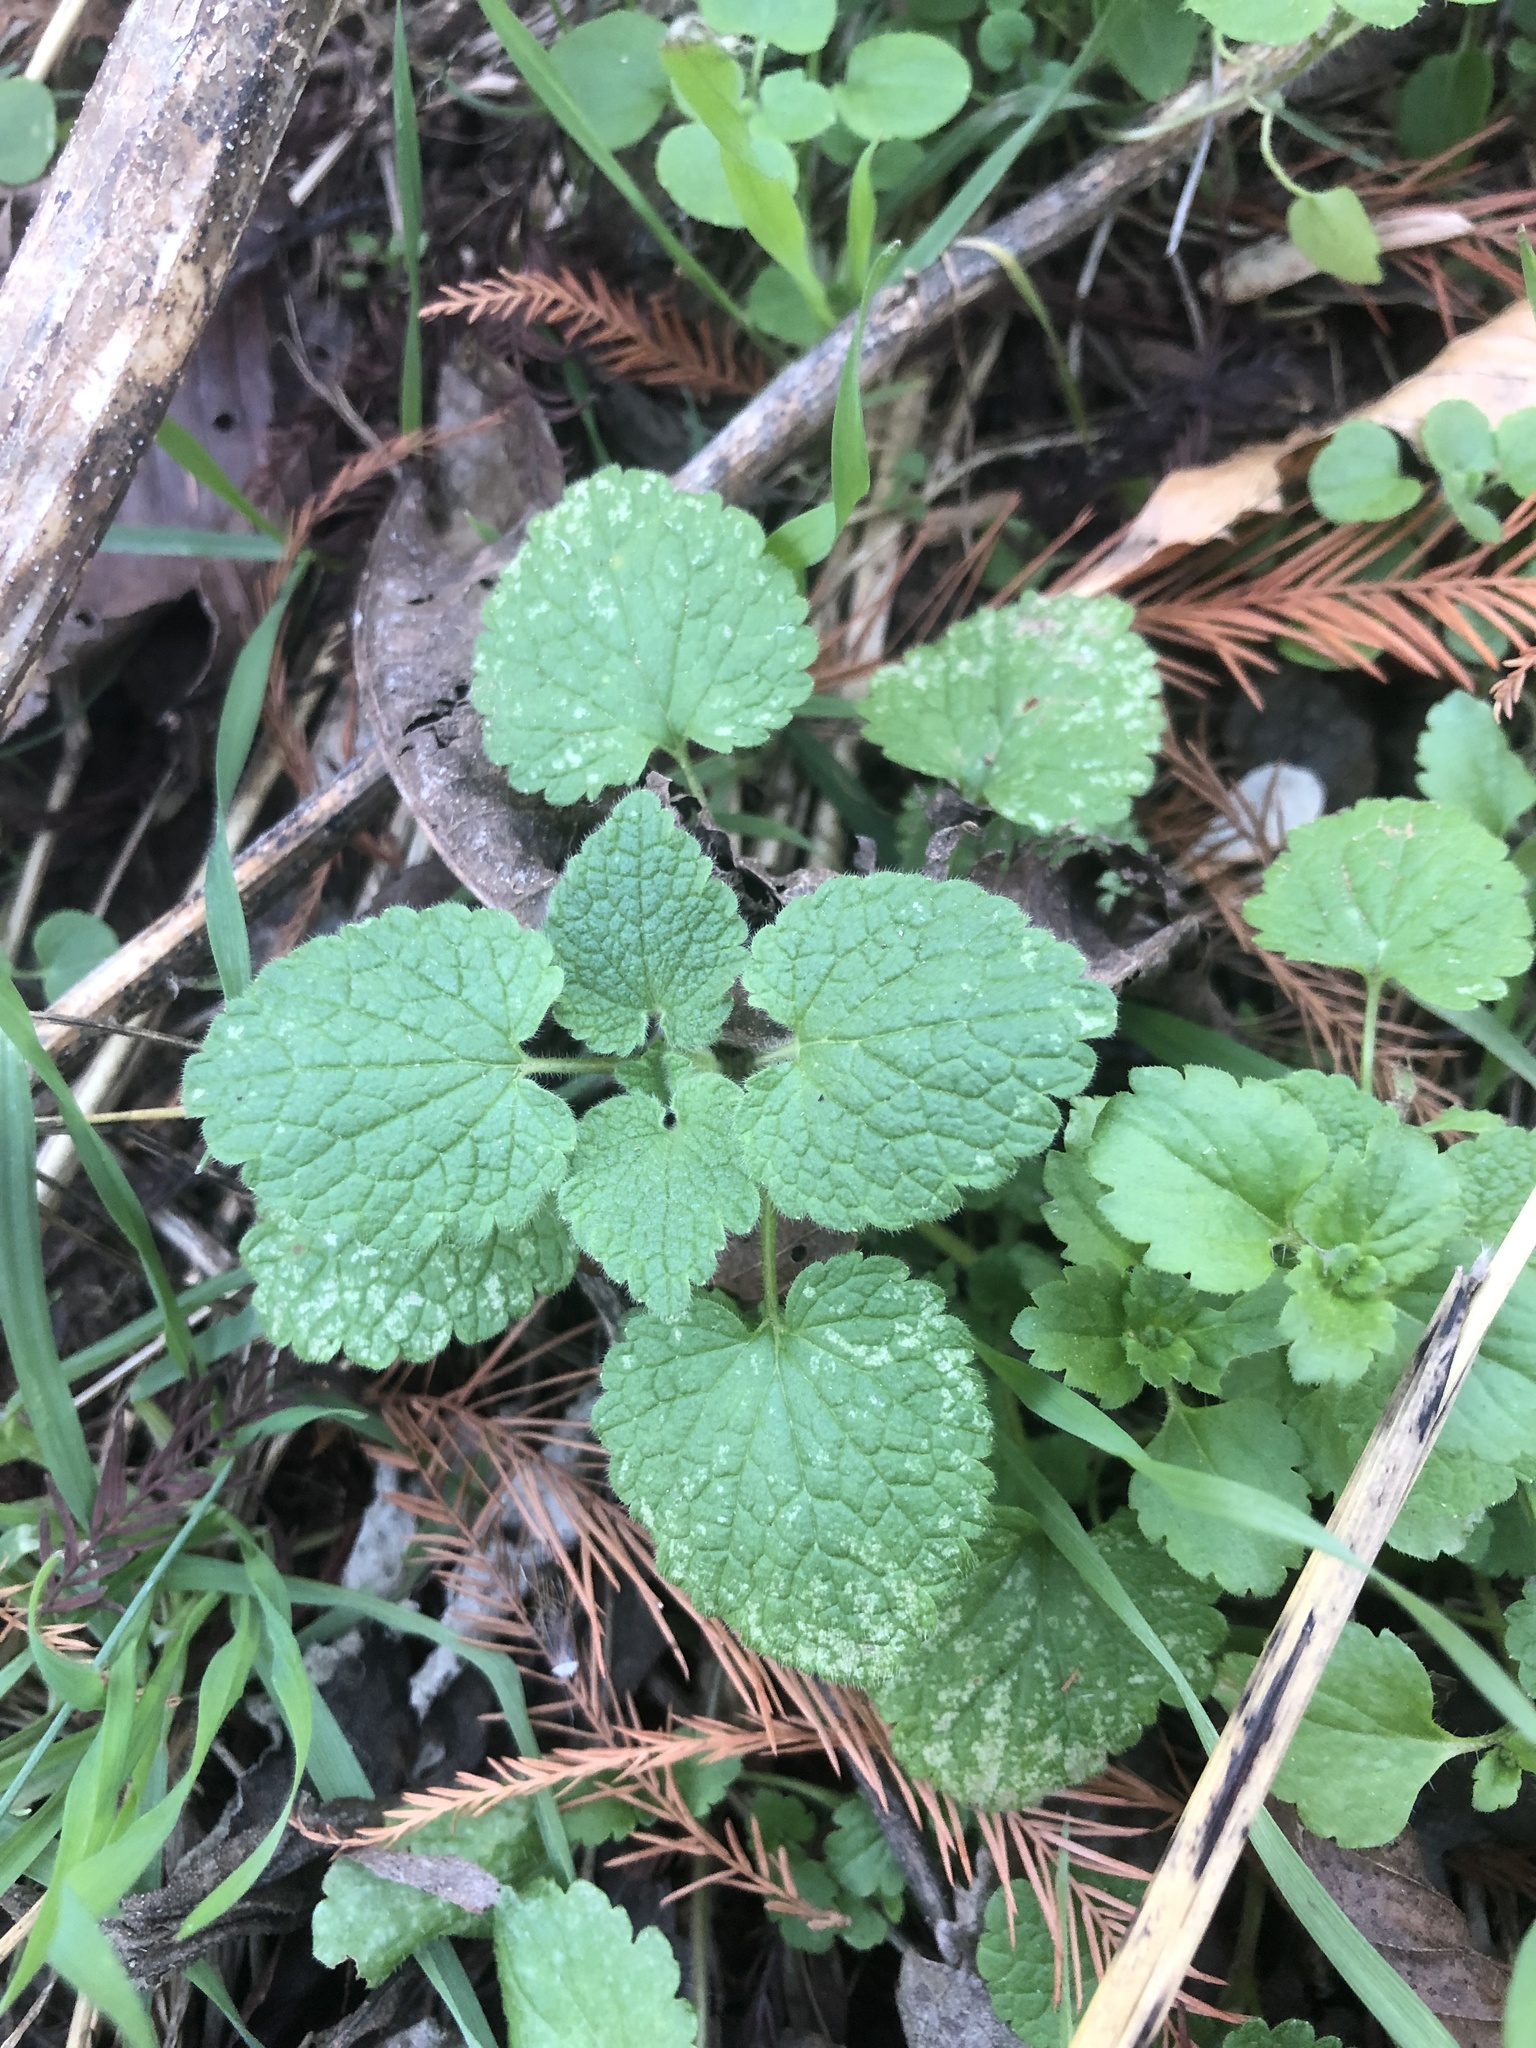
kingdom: Plantae
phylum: Tracheophyta
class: Magnoliopsida
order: Lamiales
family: Lamiaceae
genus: Lamium
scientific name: Lamium purpureum
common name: Red dead-nettle
